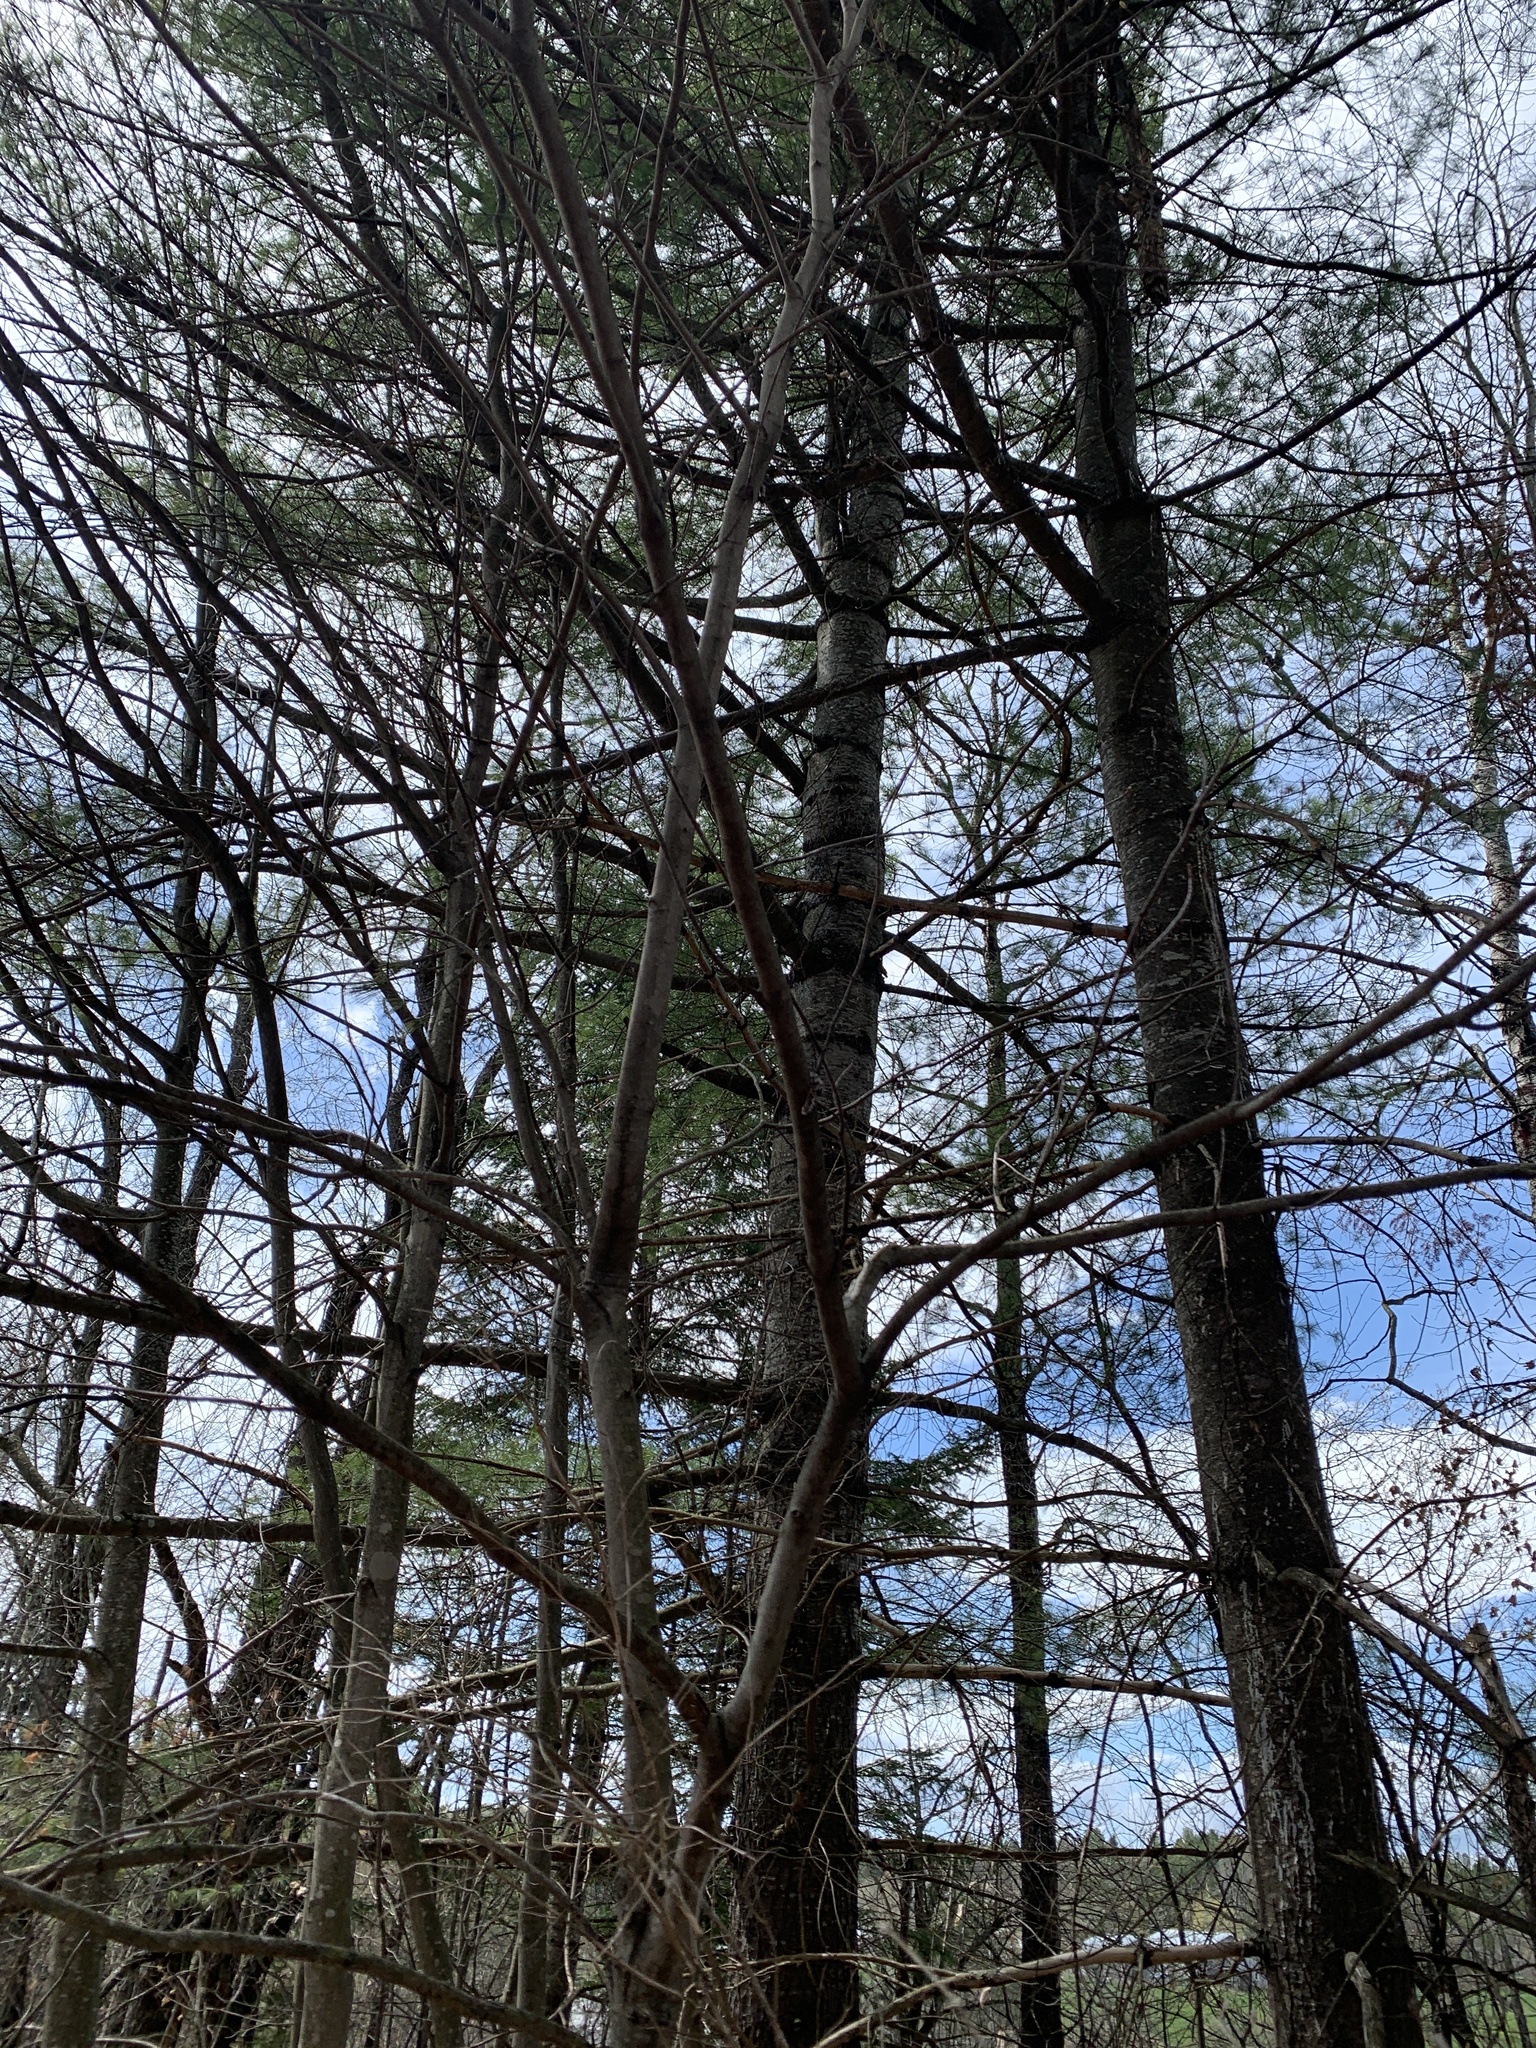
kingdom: Plantae
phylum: Tracheophyta
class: Pinopsida
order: Pinales
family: Pinaceae
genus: Pinus
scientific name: Pinus strobus
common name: Weymouth pine
